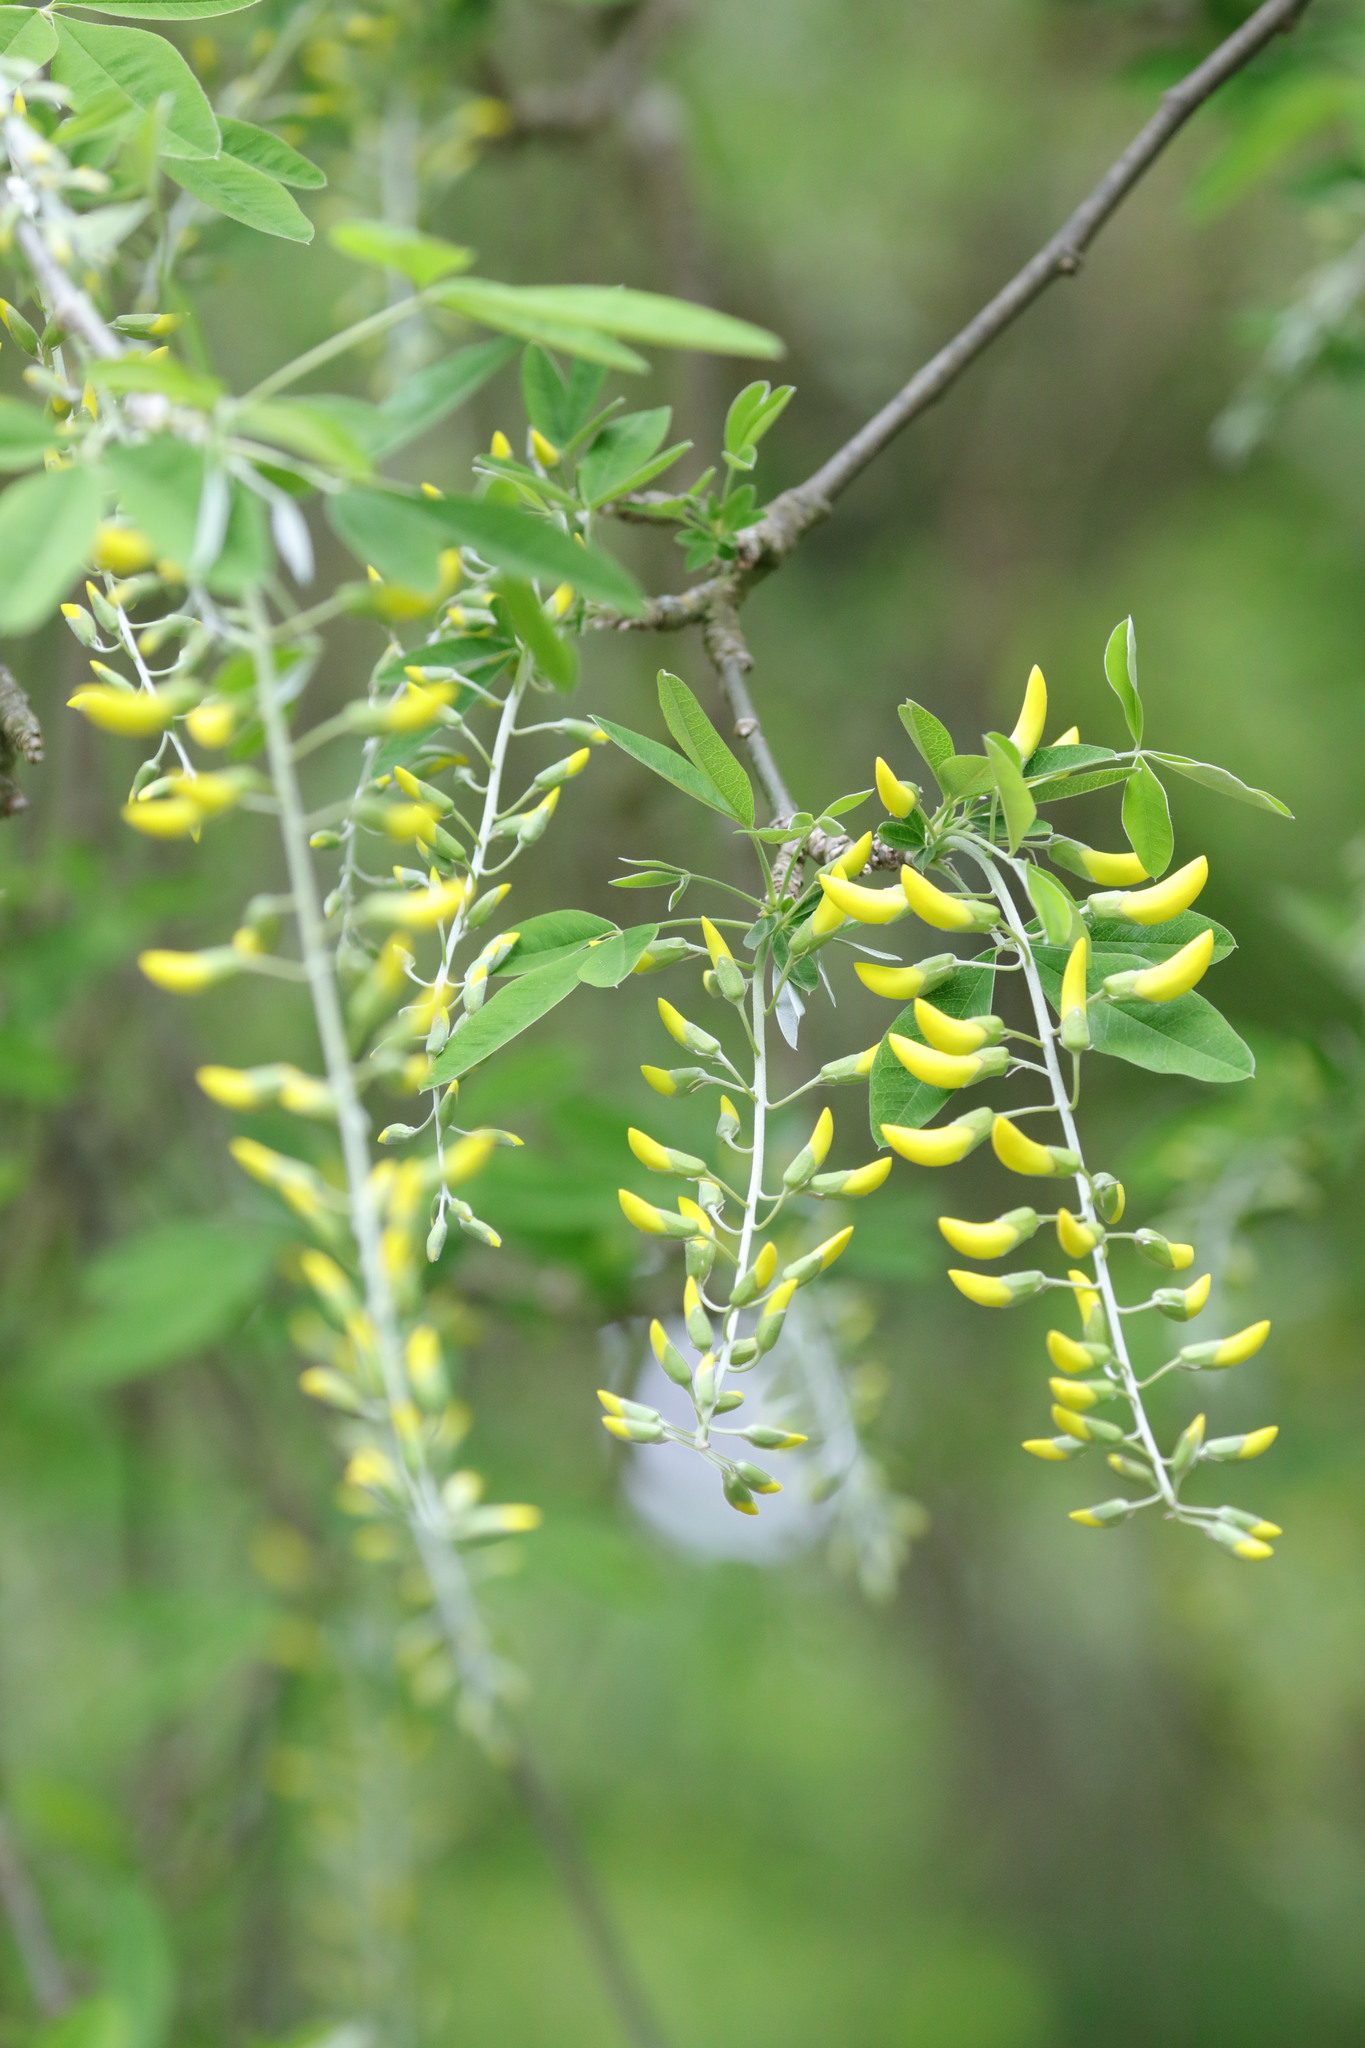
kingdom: Plantae
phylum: Tracheophyta
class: Magnoliopsida
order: Fabales
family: Fabaceae
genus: Laburnum
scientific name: Laburnum anagyroides
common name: Laburnum
